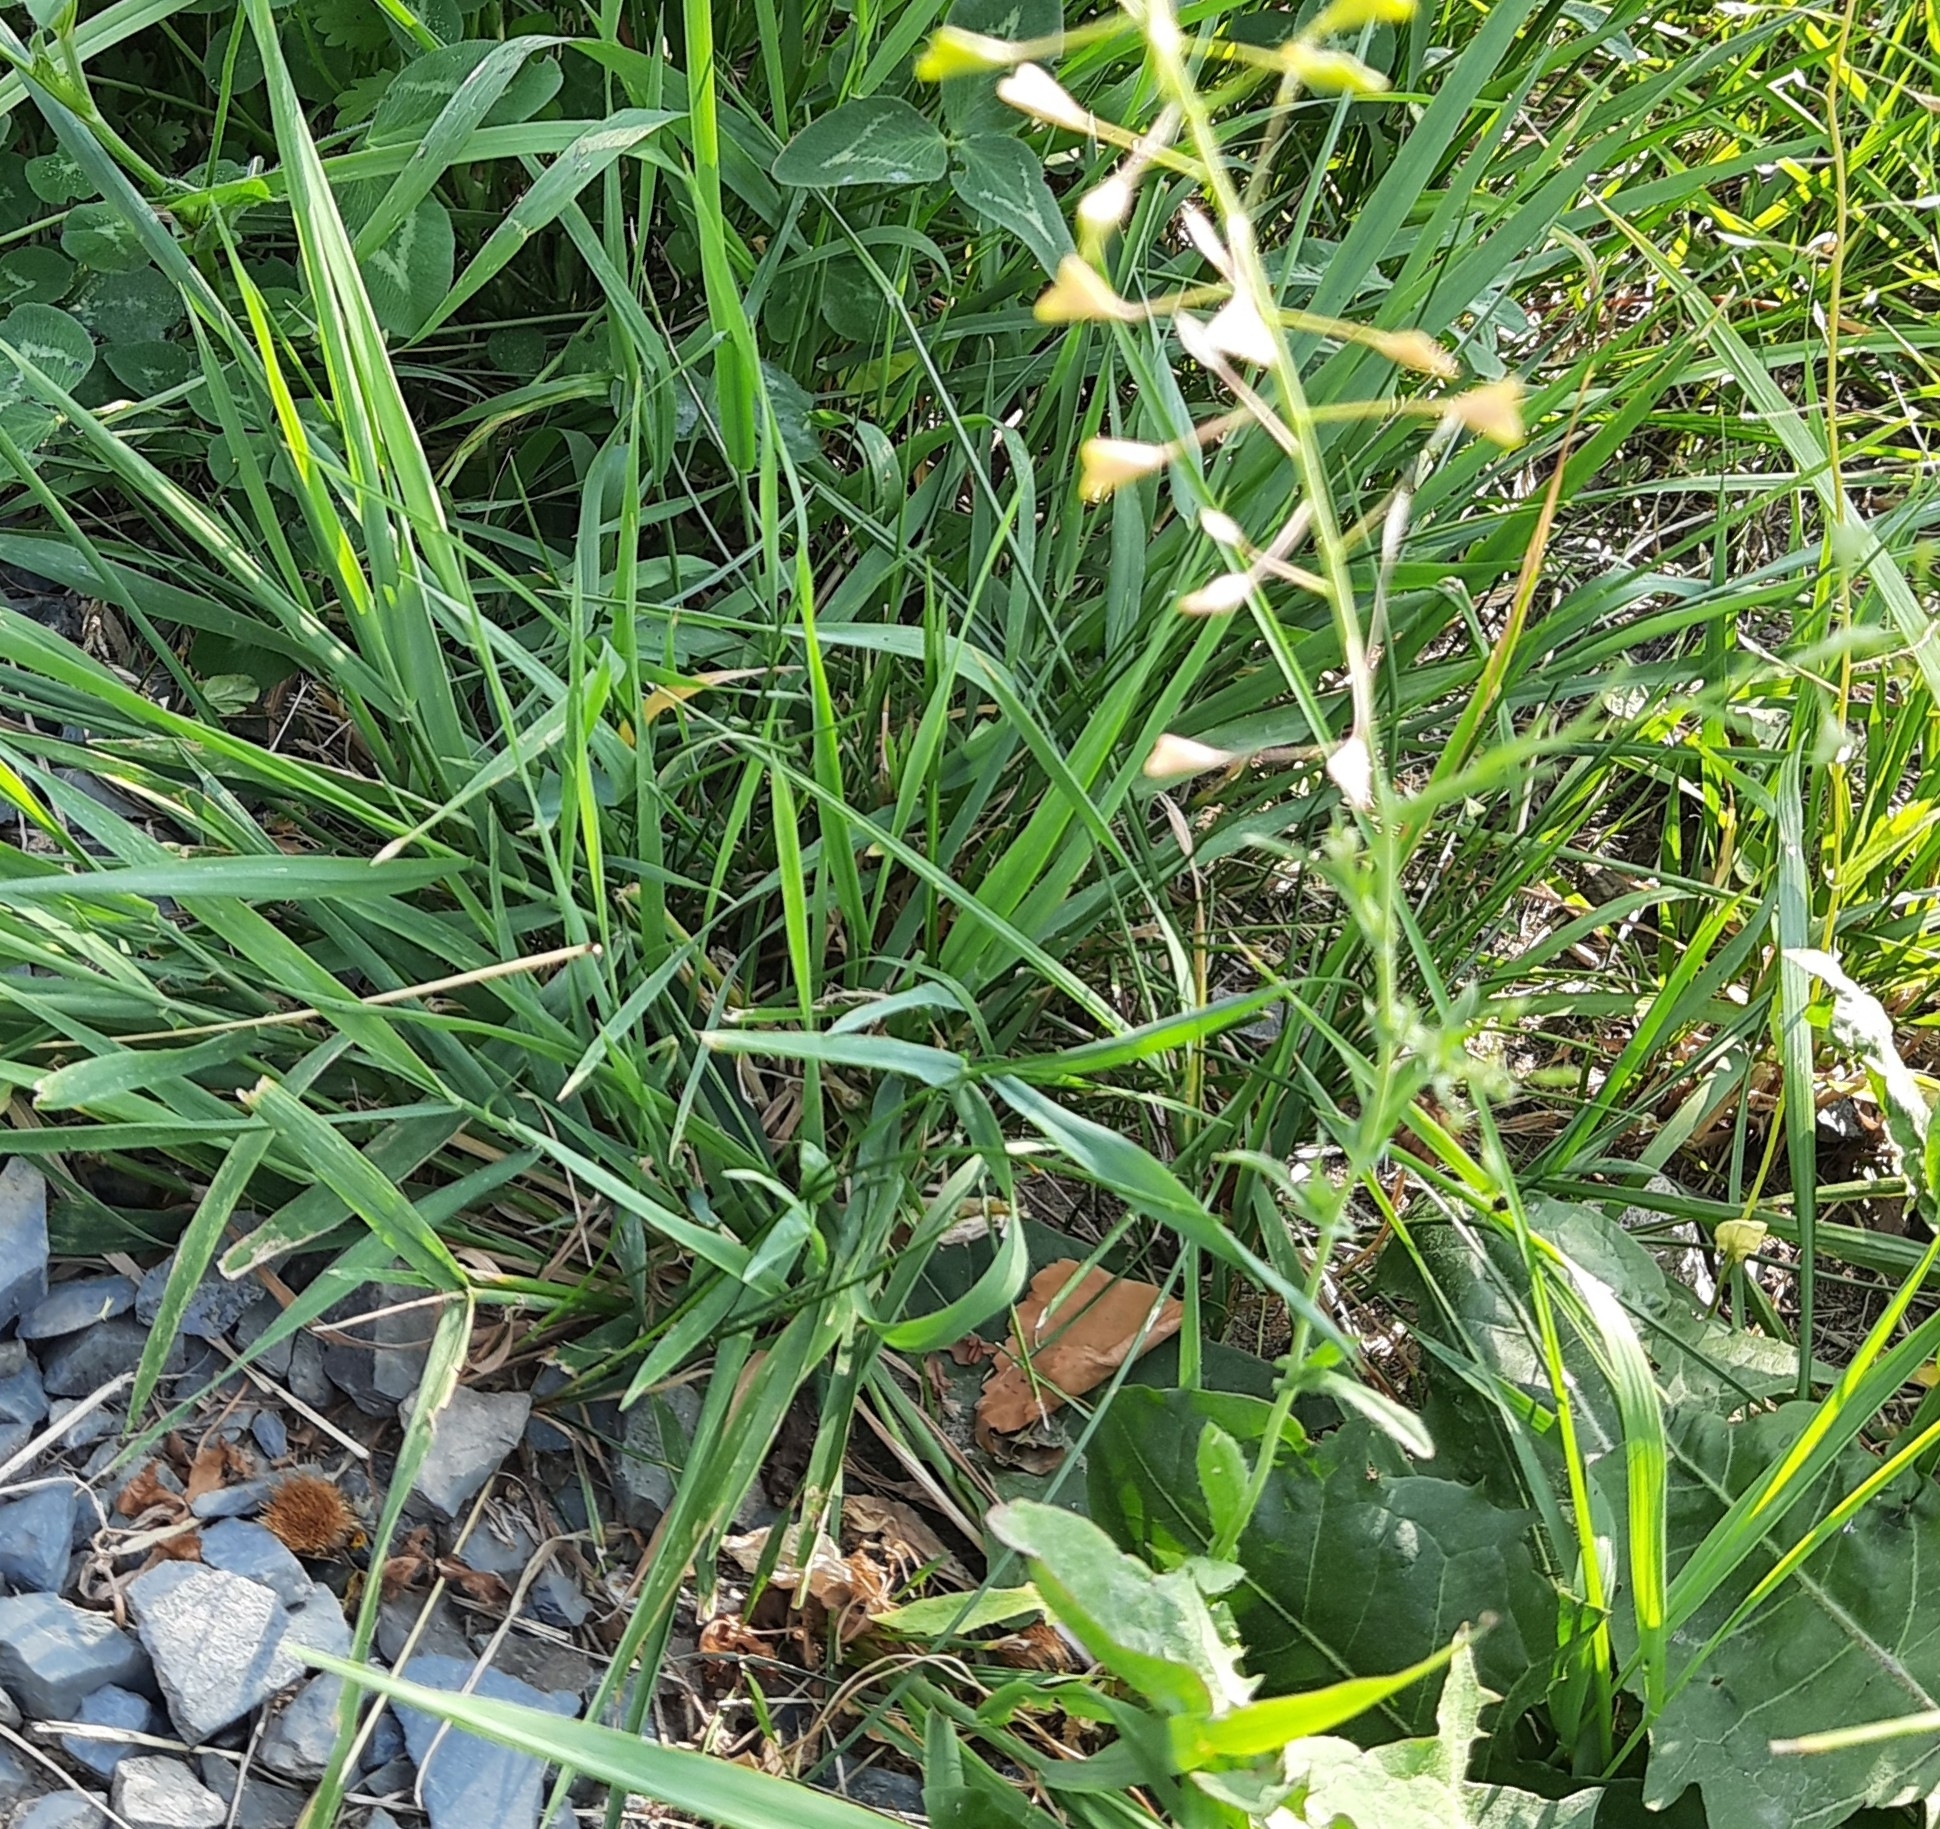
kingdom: Plantae
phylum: Tracheophyta
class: Magnoliopsida
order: Brassicales
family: Brassicaceae
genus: Capsella
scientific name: Capsella bursa-pastoris
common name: Shepherd's purse
